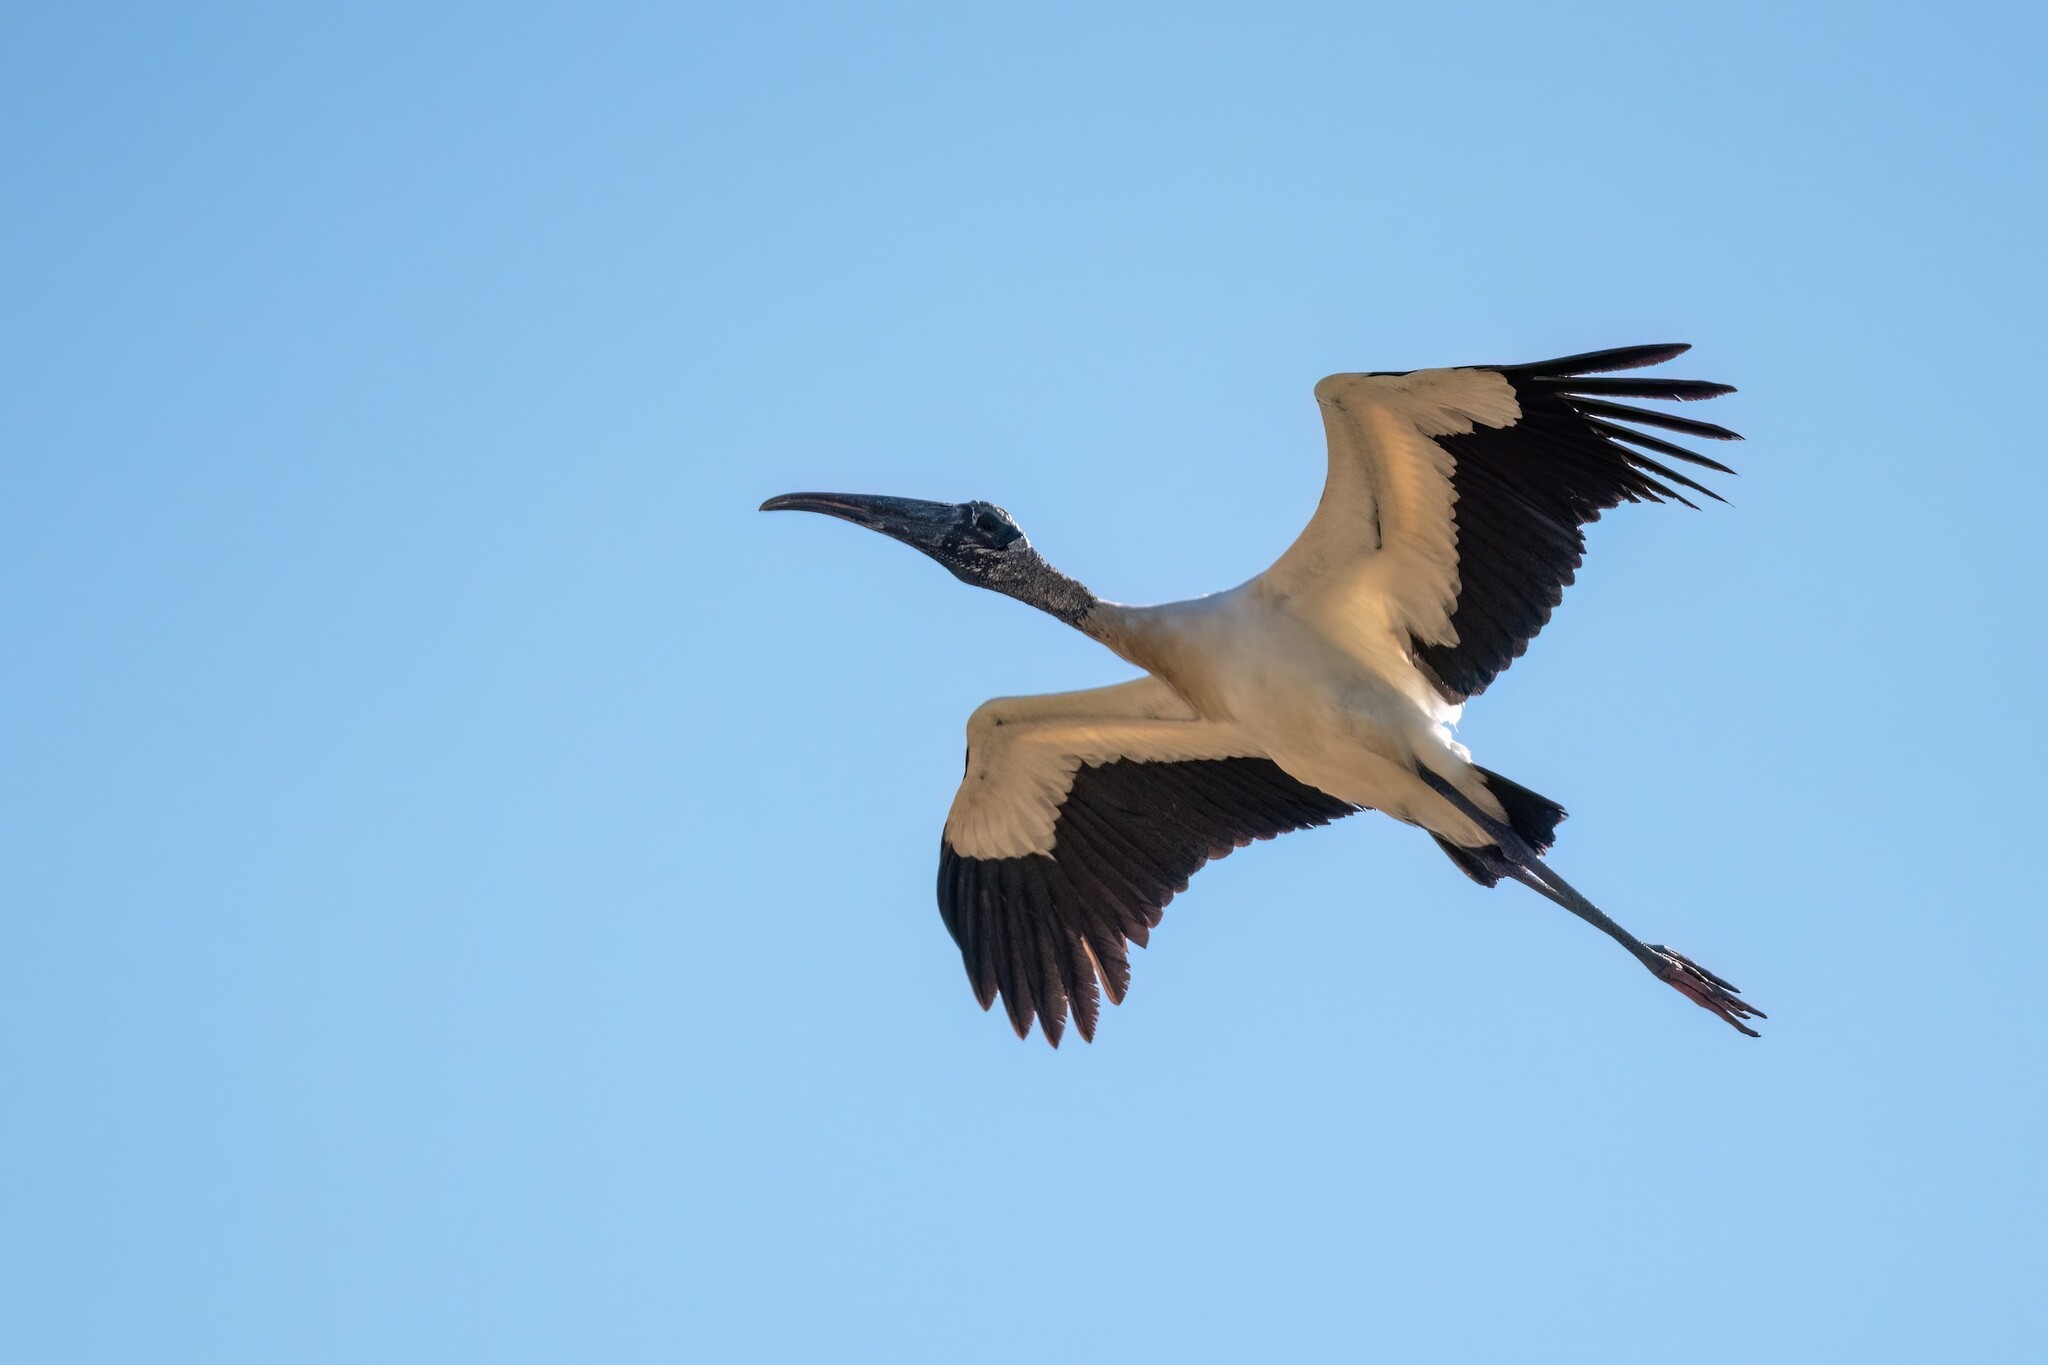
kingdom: Animalia
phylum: Chordata
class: Aves
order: Ciconiiformes
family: Ciconiidae
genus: Mycteria
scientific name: Mycteria americana
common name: Wood stork
